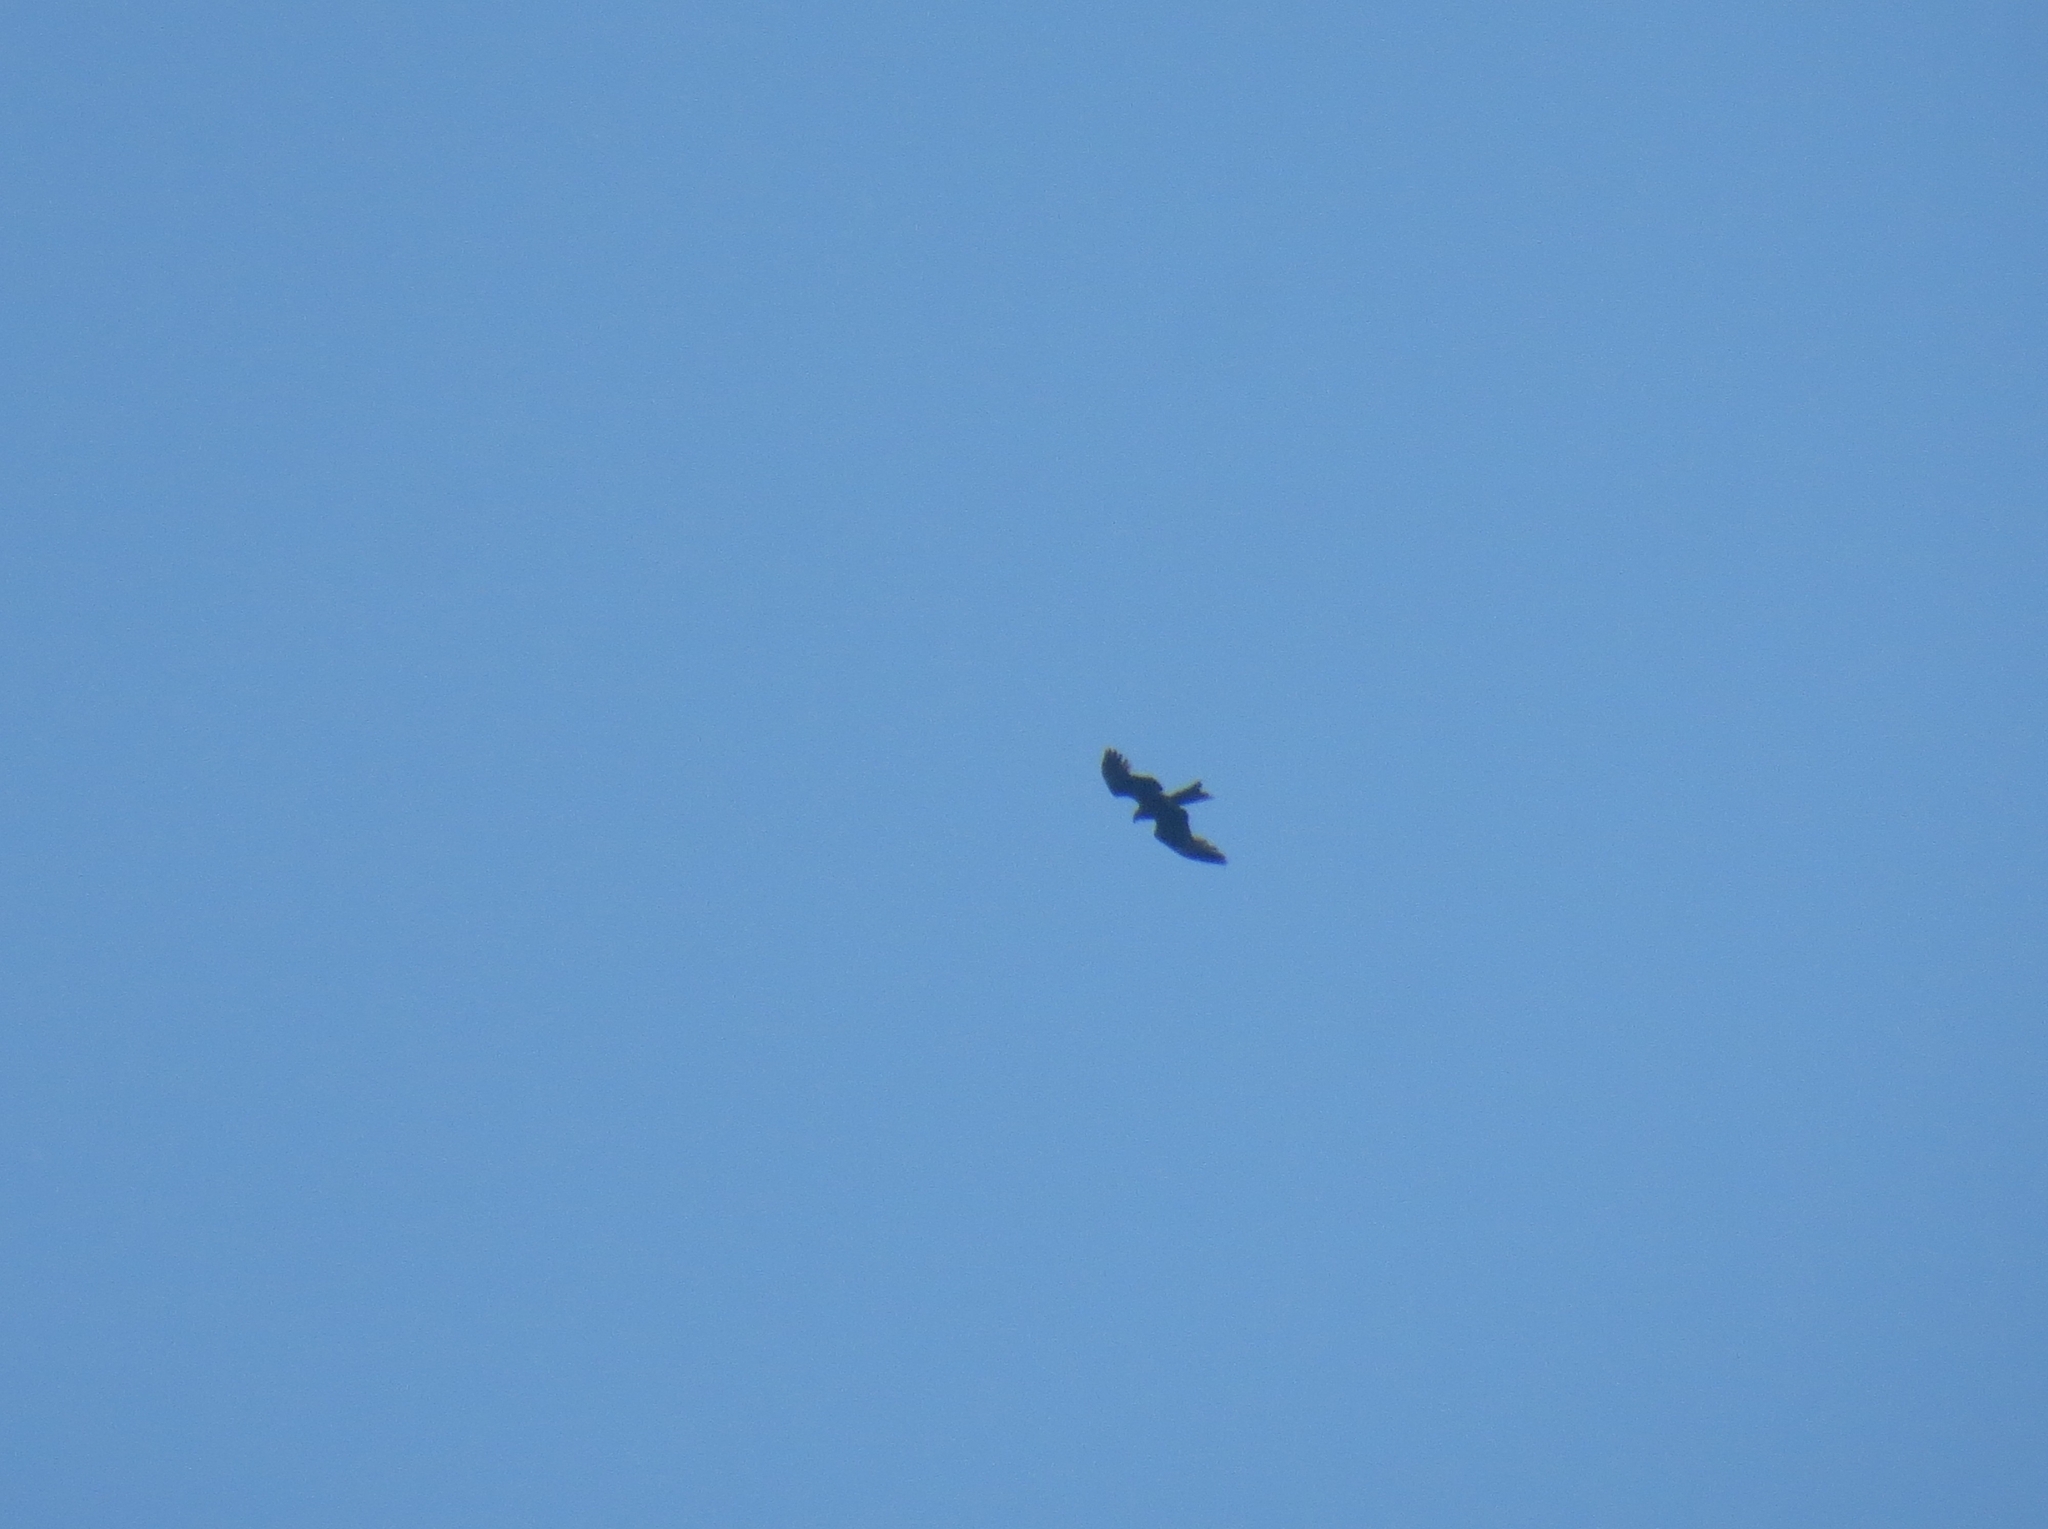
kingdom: Animalia
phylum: Chordata
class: Aves
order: Accipitriformes
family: Accipitridae
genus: Milvus
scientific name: Milvus migrans
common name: Black kite
